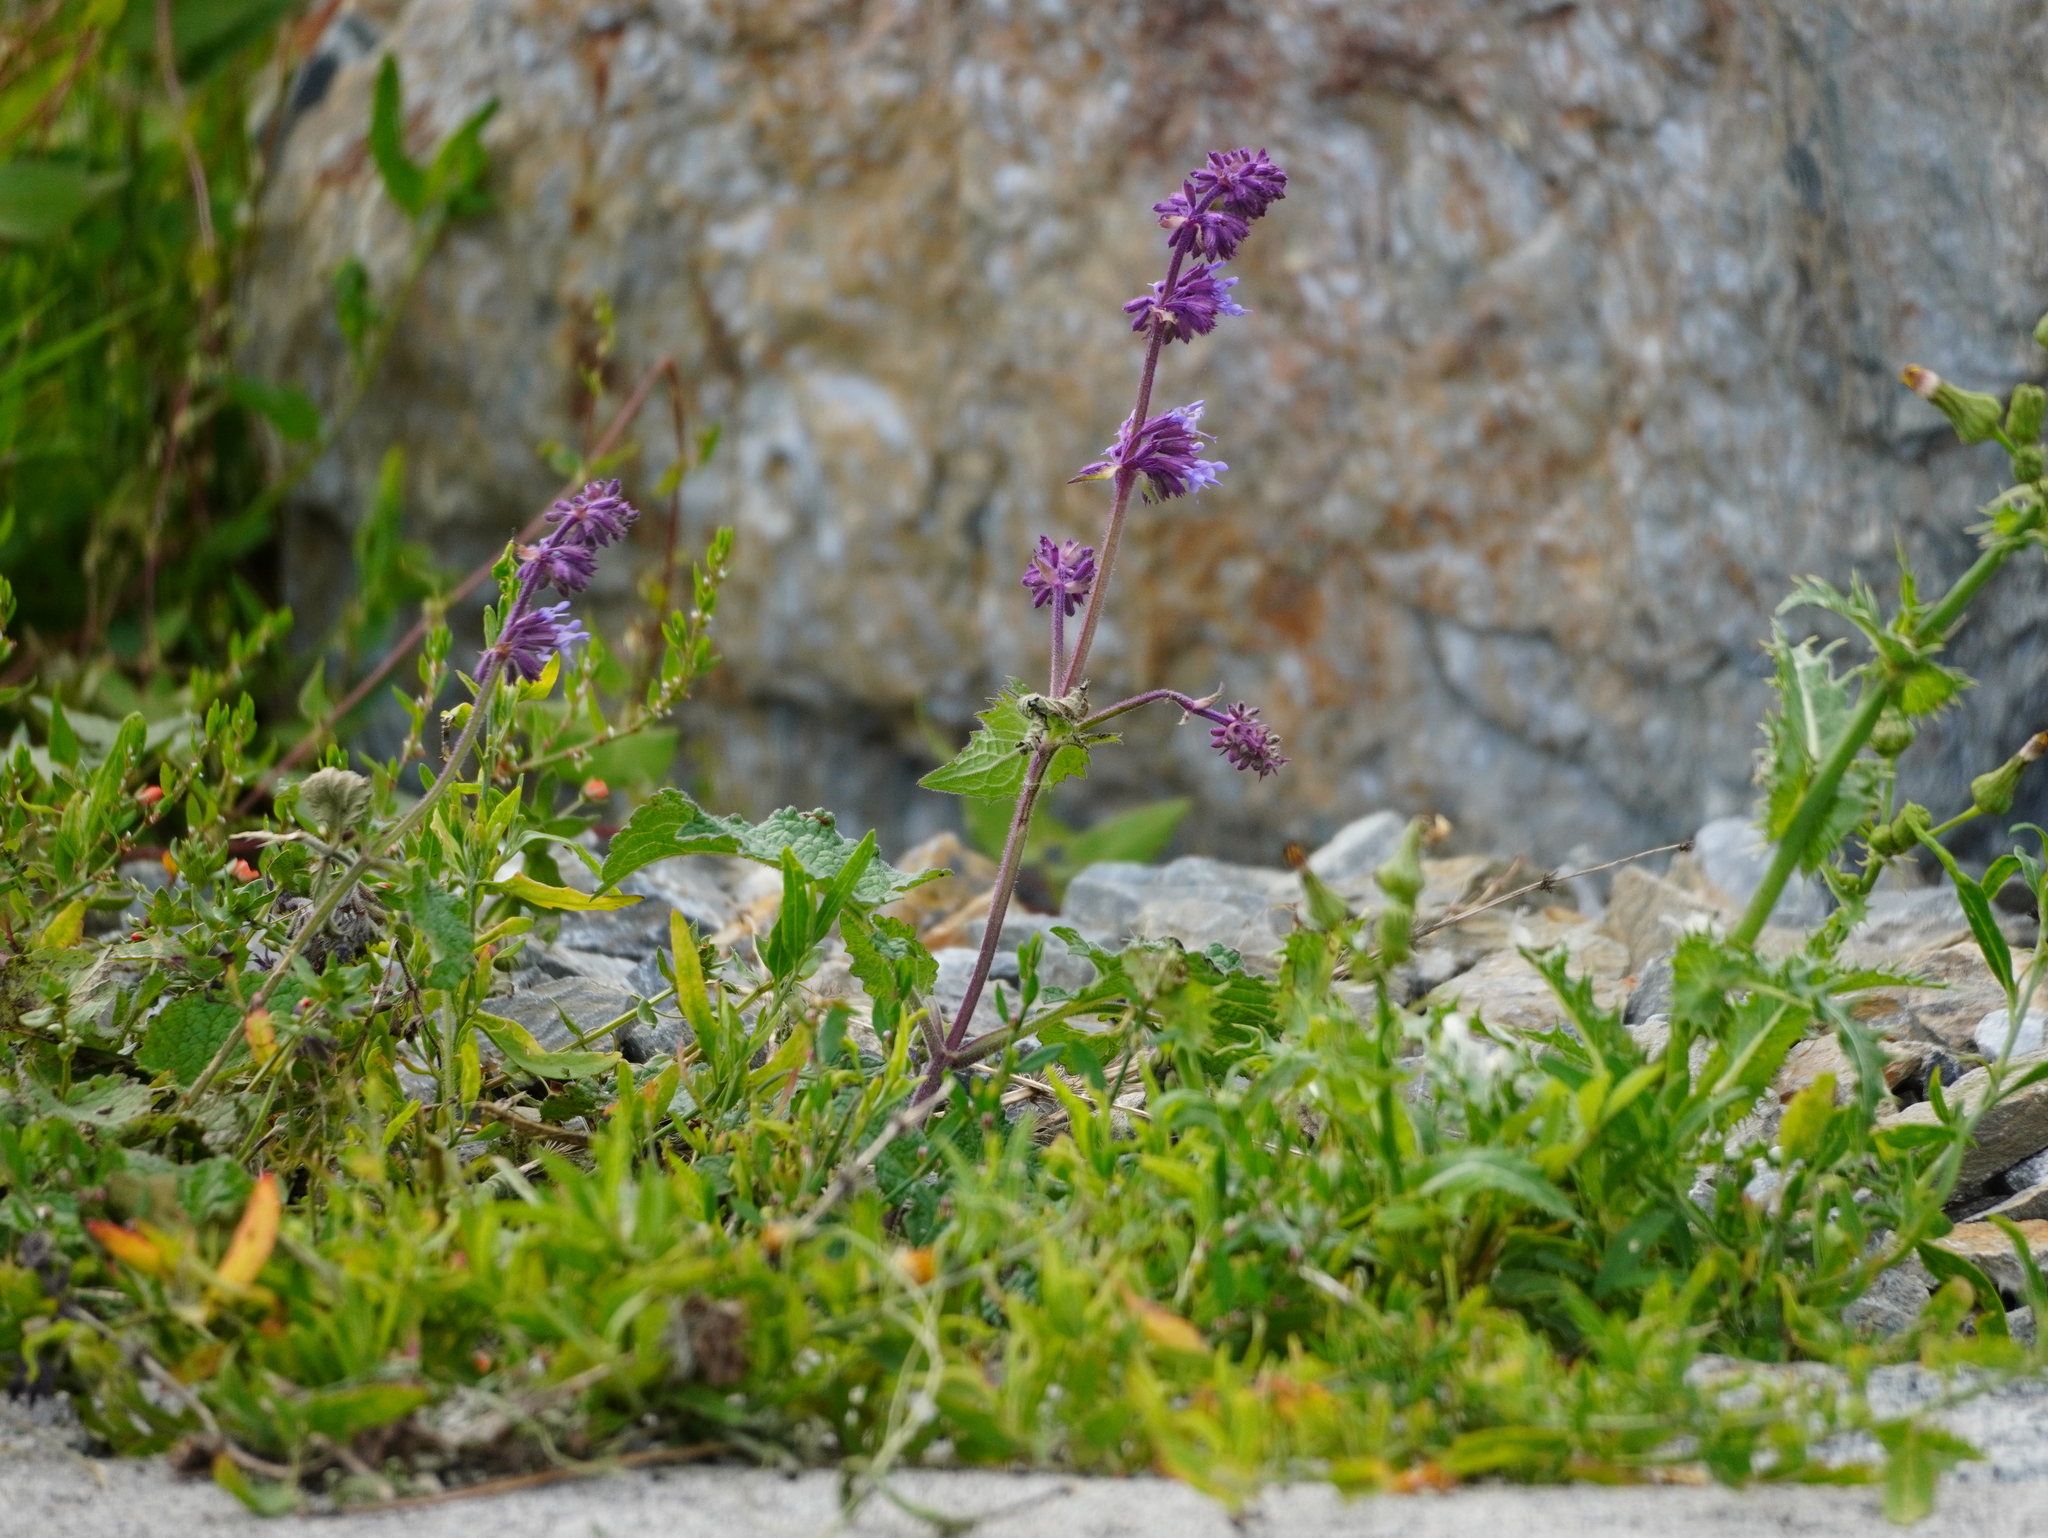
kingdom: Plantae
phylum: Tracheophyta
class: Magnoliopsida
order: Lamiales
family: Lamiaceae
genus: Salvia
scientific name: Salvia verticillata
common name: Whorled clary
